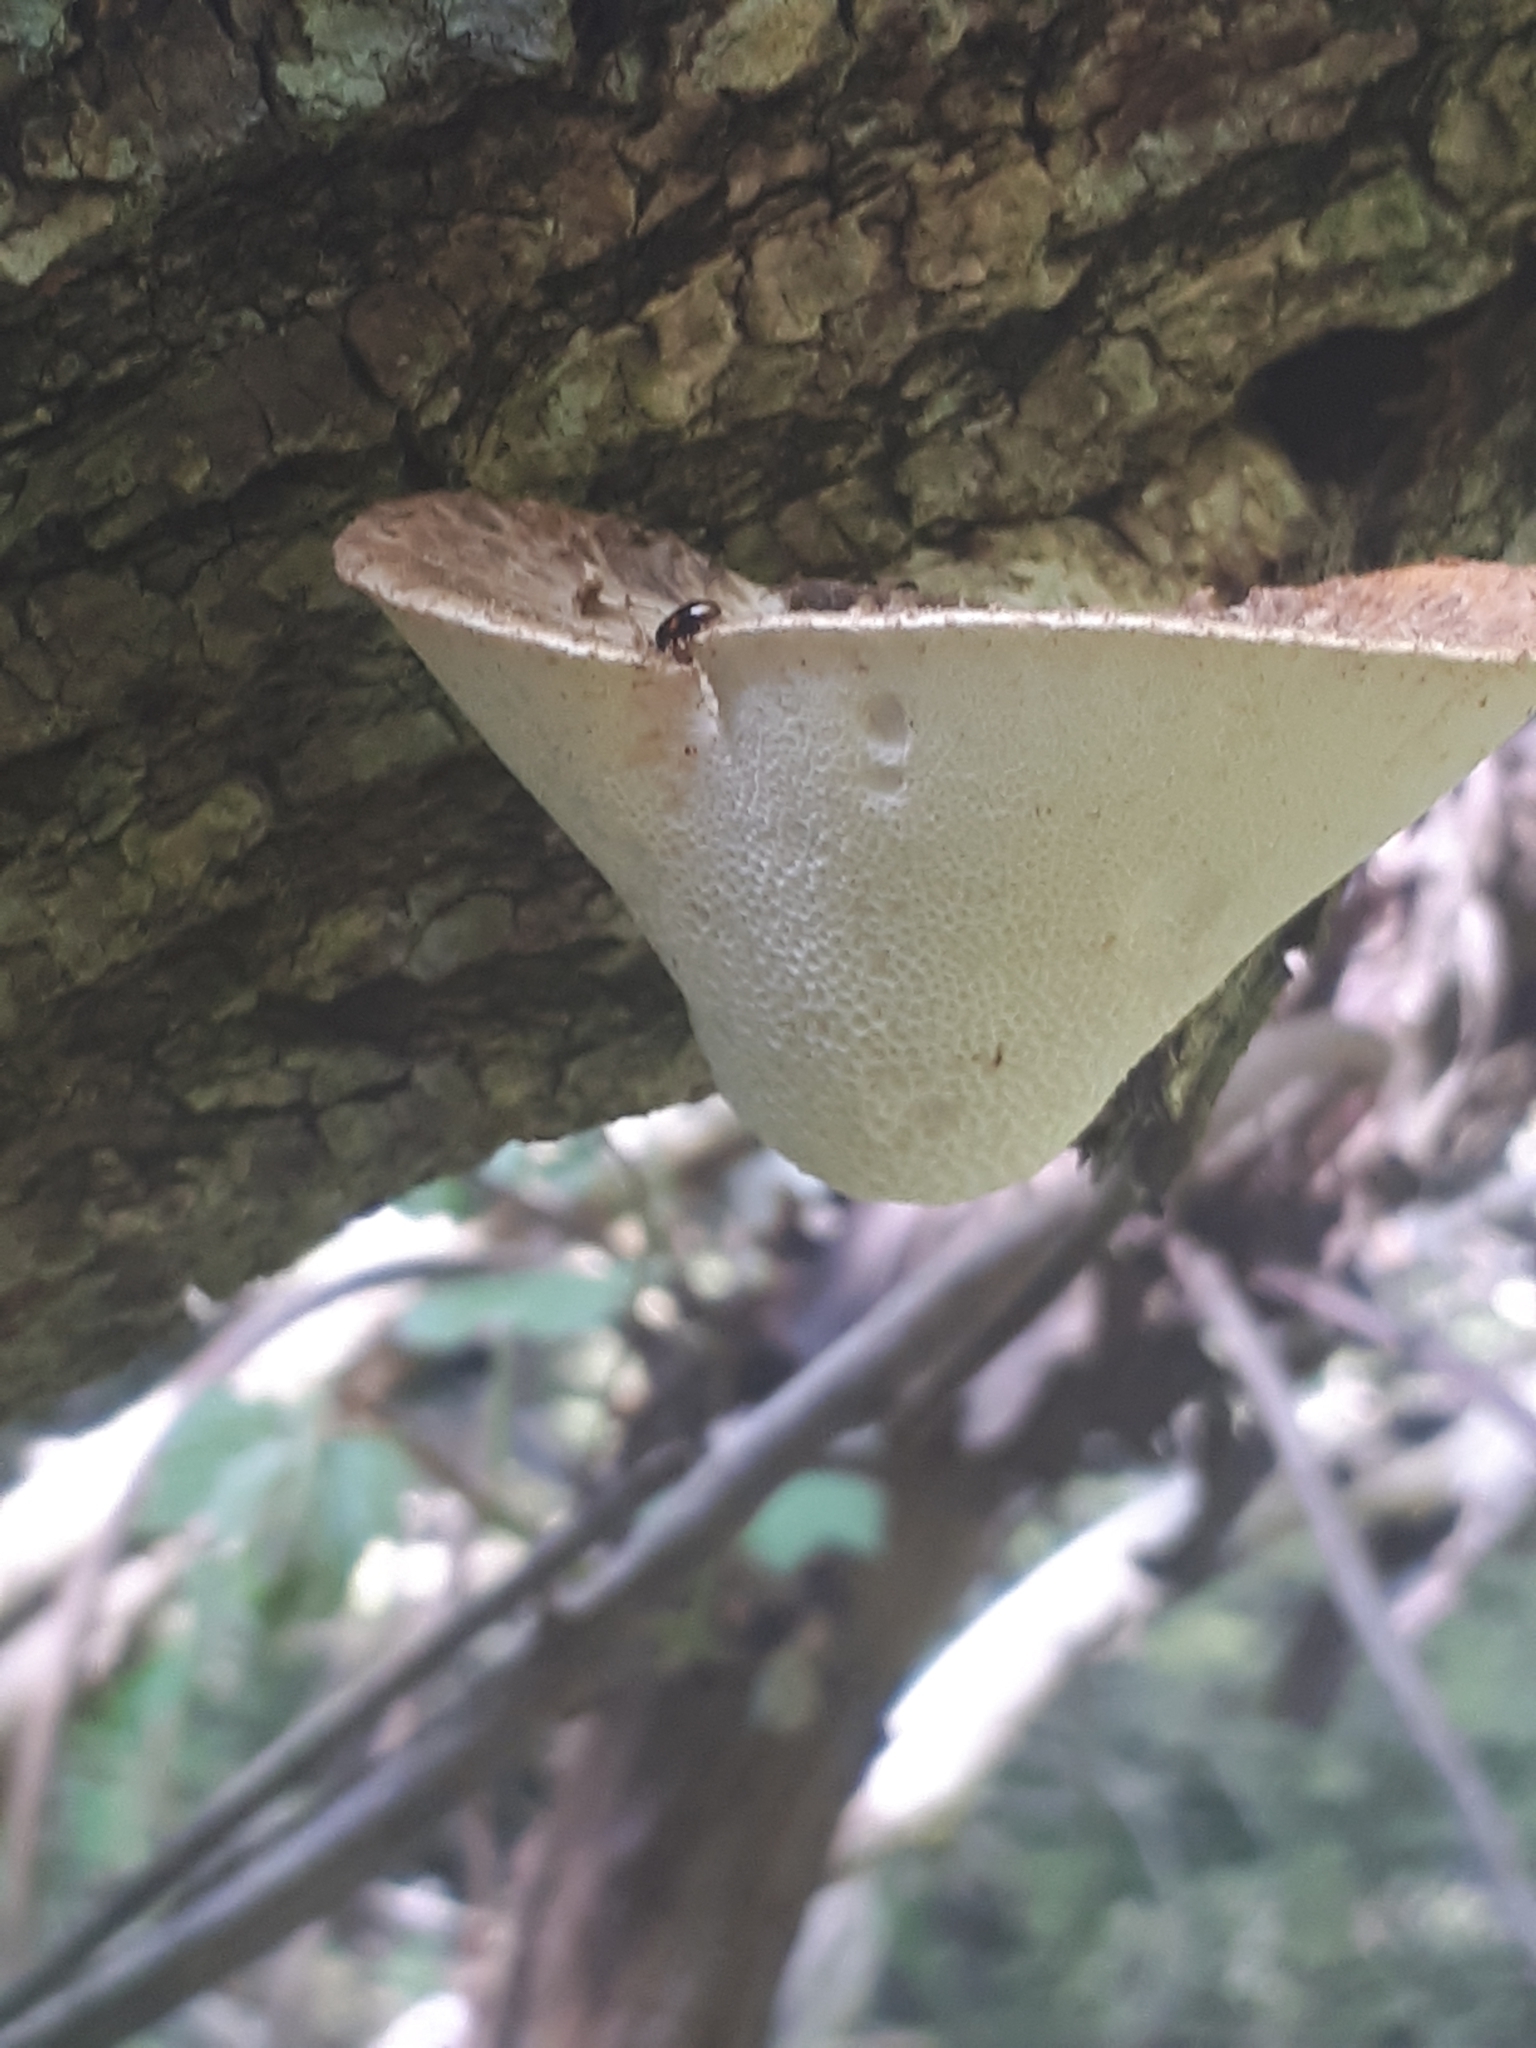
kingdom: Fungi
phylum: Basidiomycota
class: Agaricomycetes
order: Polyporales
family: Polyporaceae
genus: Cerioporus
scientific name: Cerioporus squamosus
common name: Dryad's saddle
